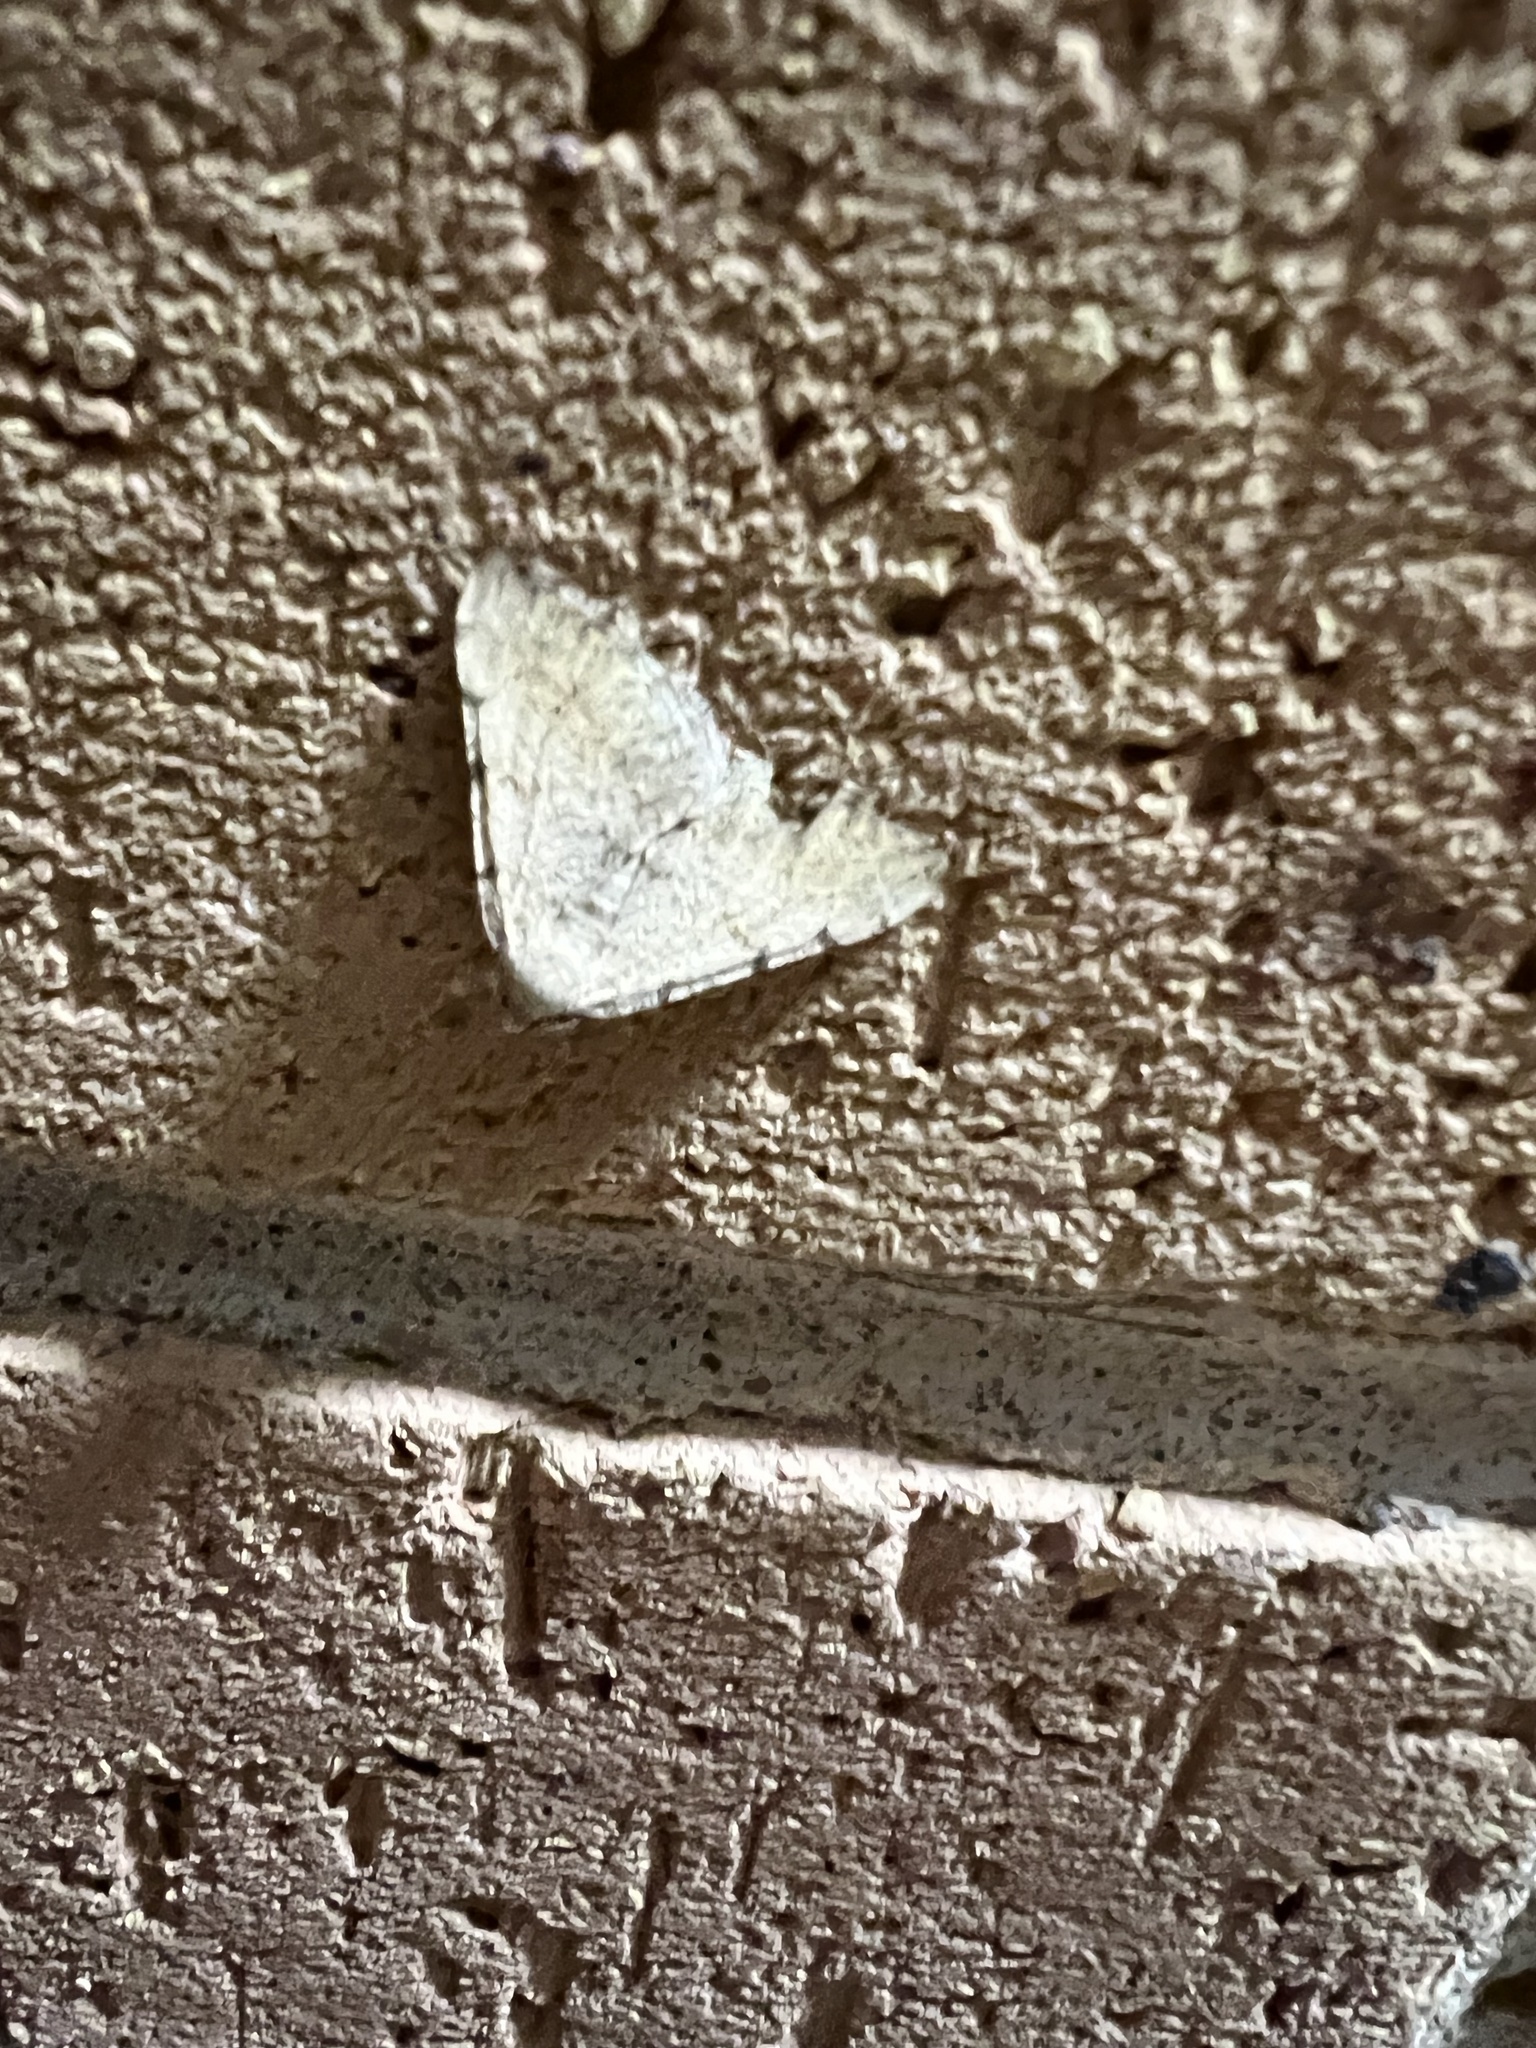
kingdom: Animalia
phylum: Arthropoda
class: Insecta
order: Lepidoptera
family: Geometridae
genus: Digrammia
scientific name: Digrammia colorata
